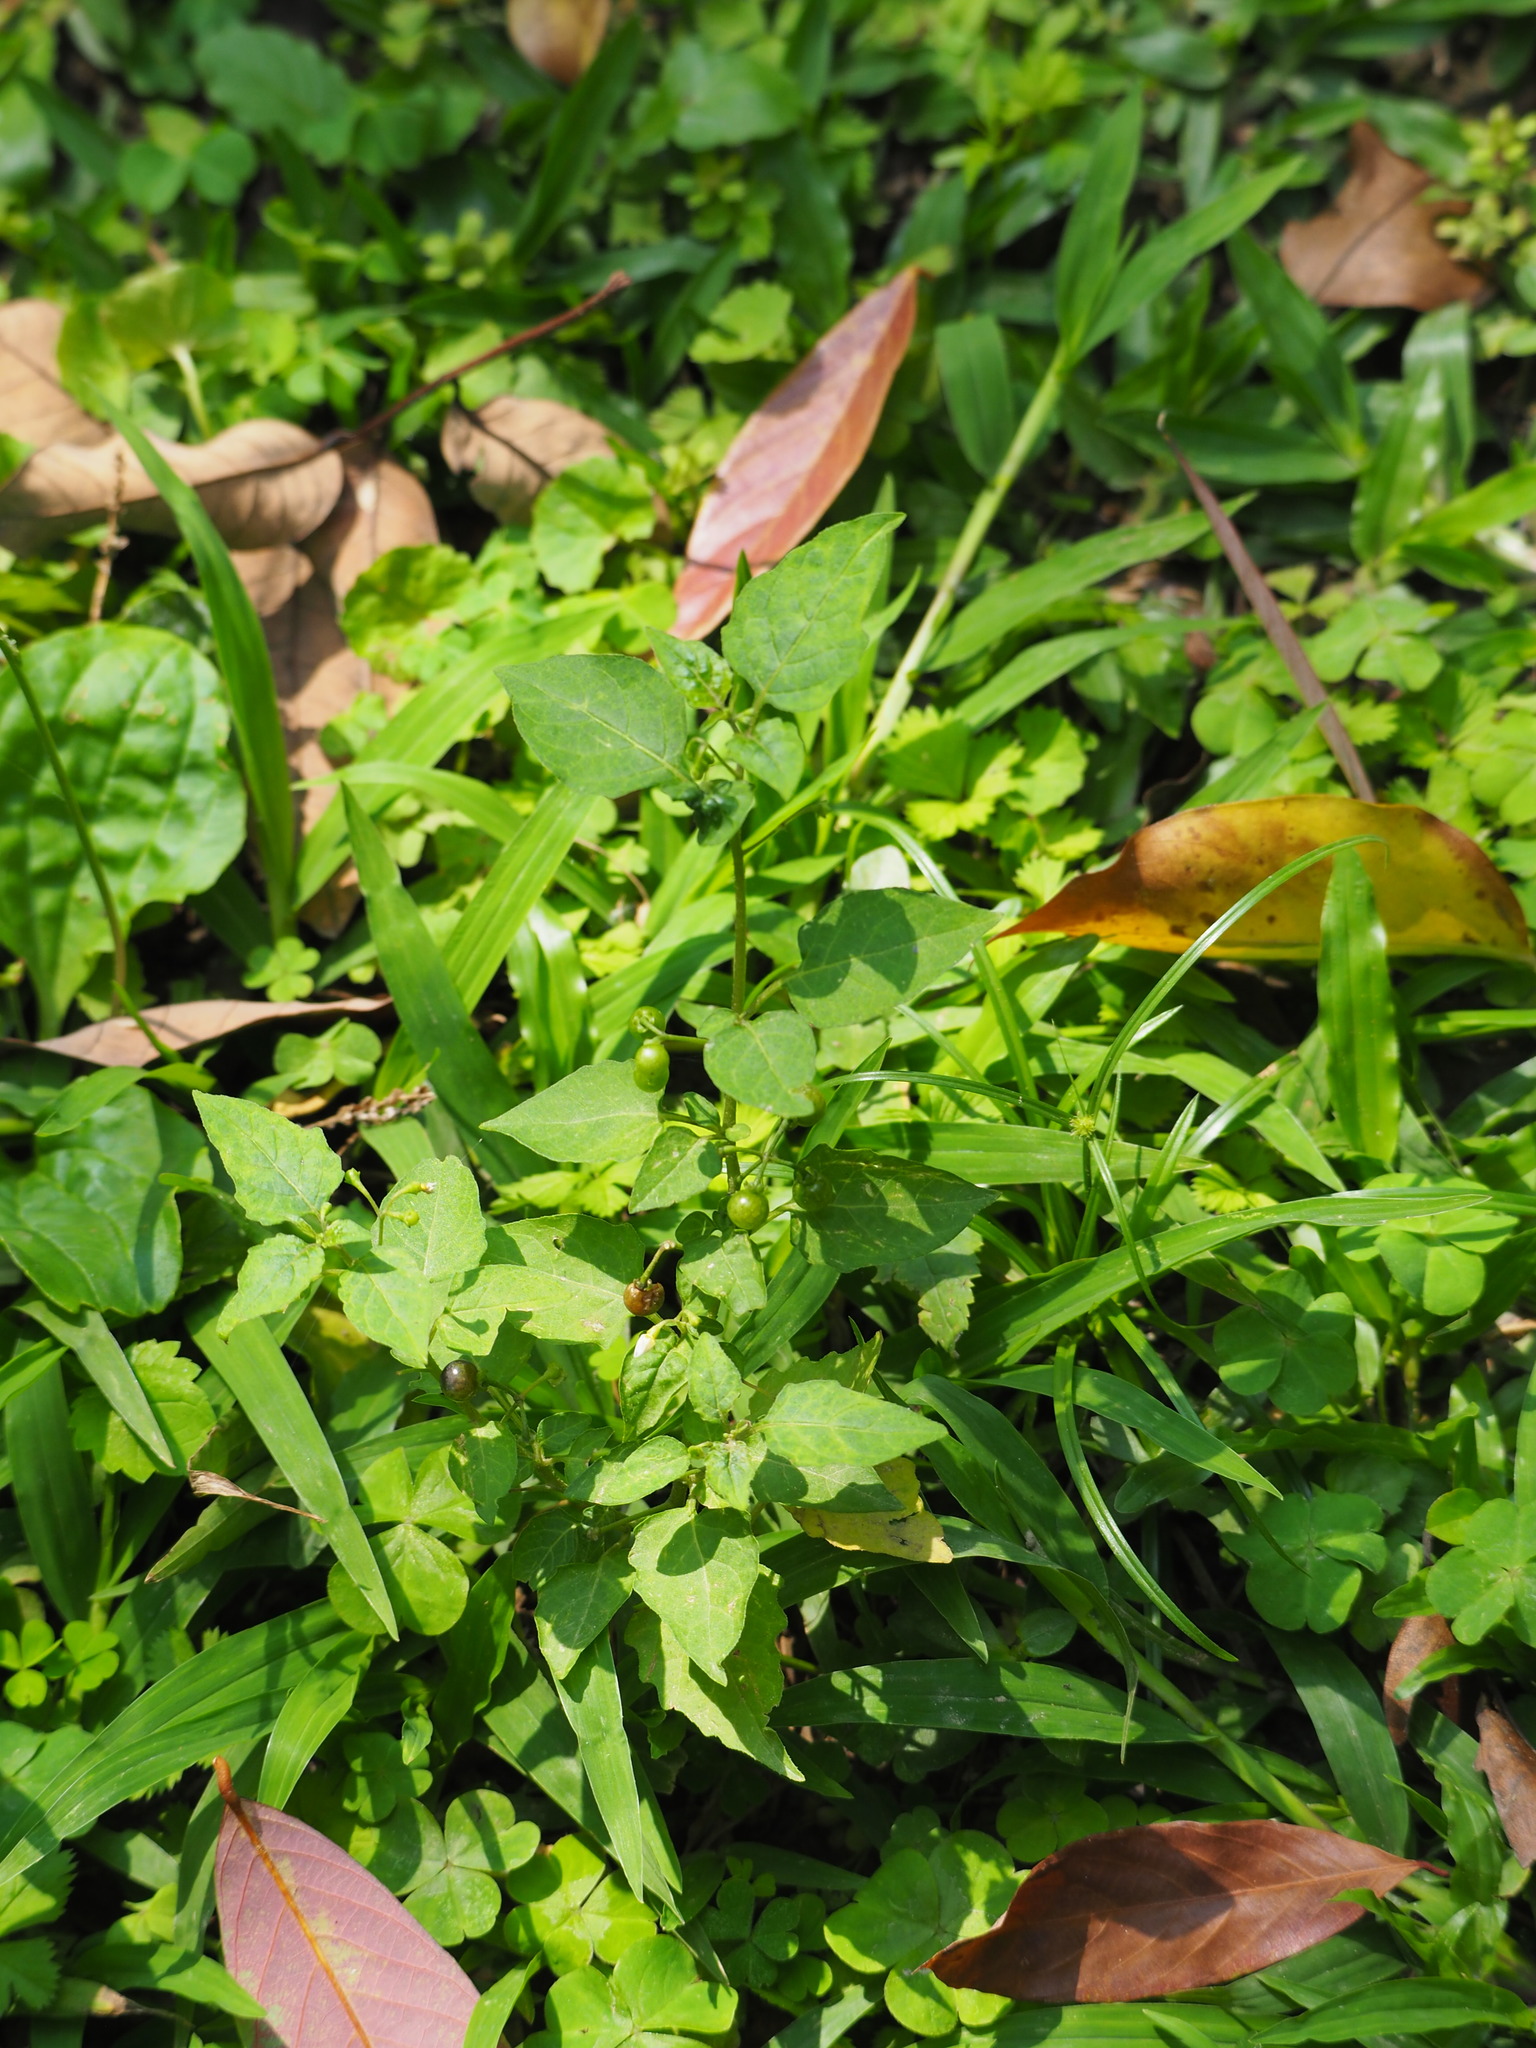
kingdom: Plantae
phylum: Tracheophyta
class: Magnoliopsida
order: Solanales
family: Solanaceae
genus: Solanum
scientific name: Solanum americanum
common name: American black nightshade
